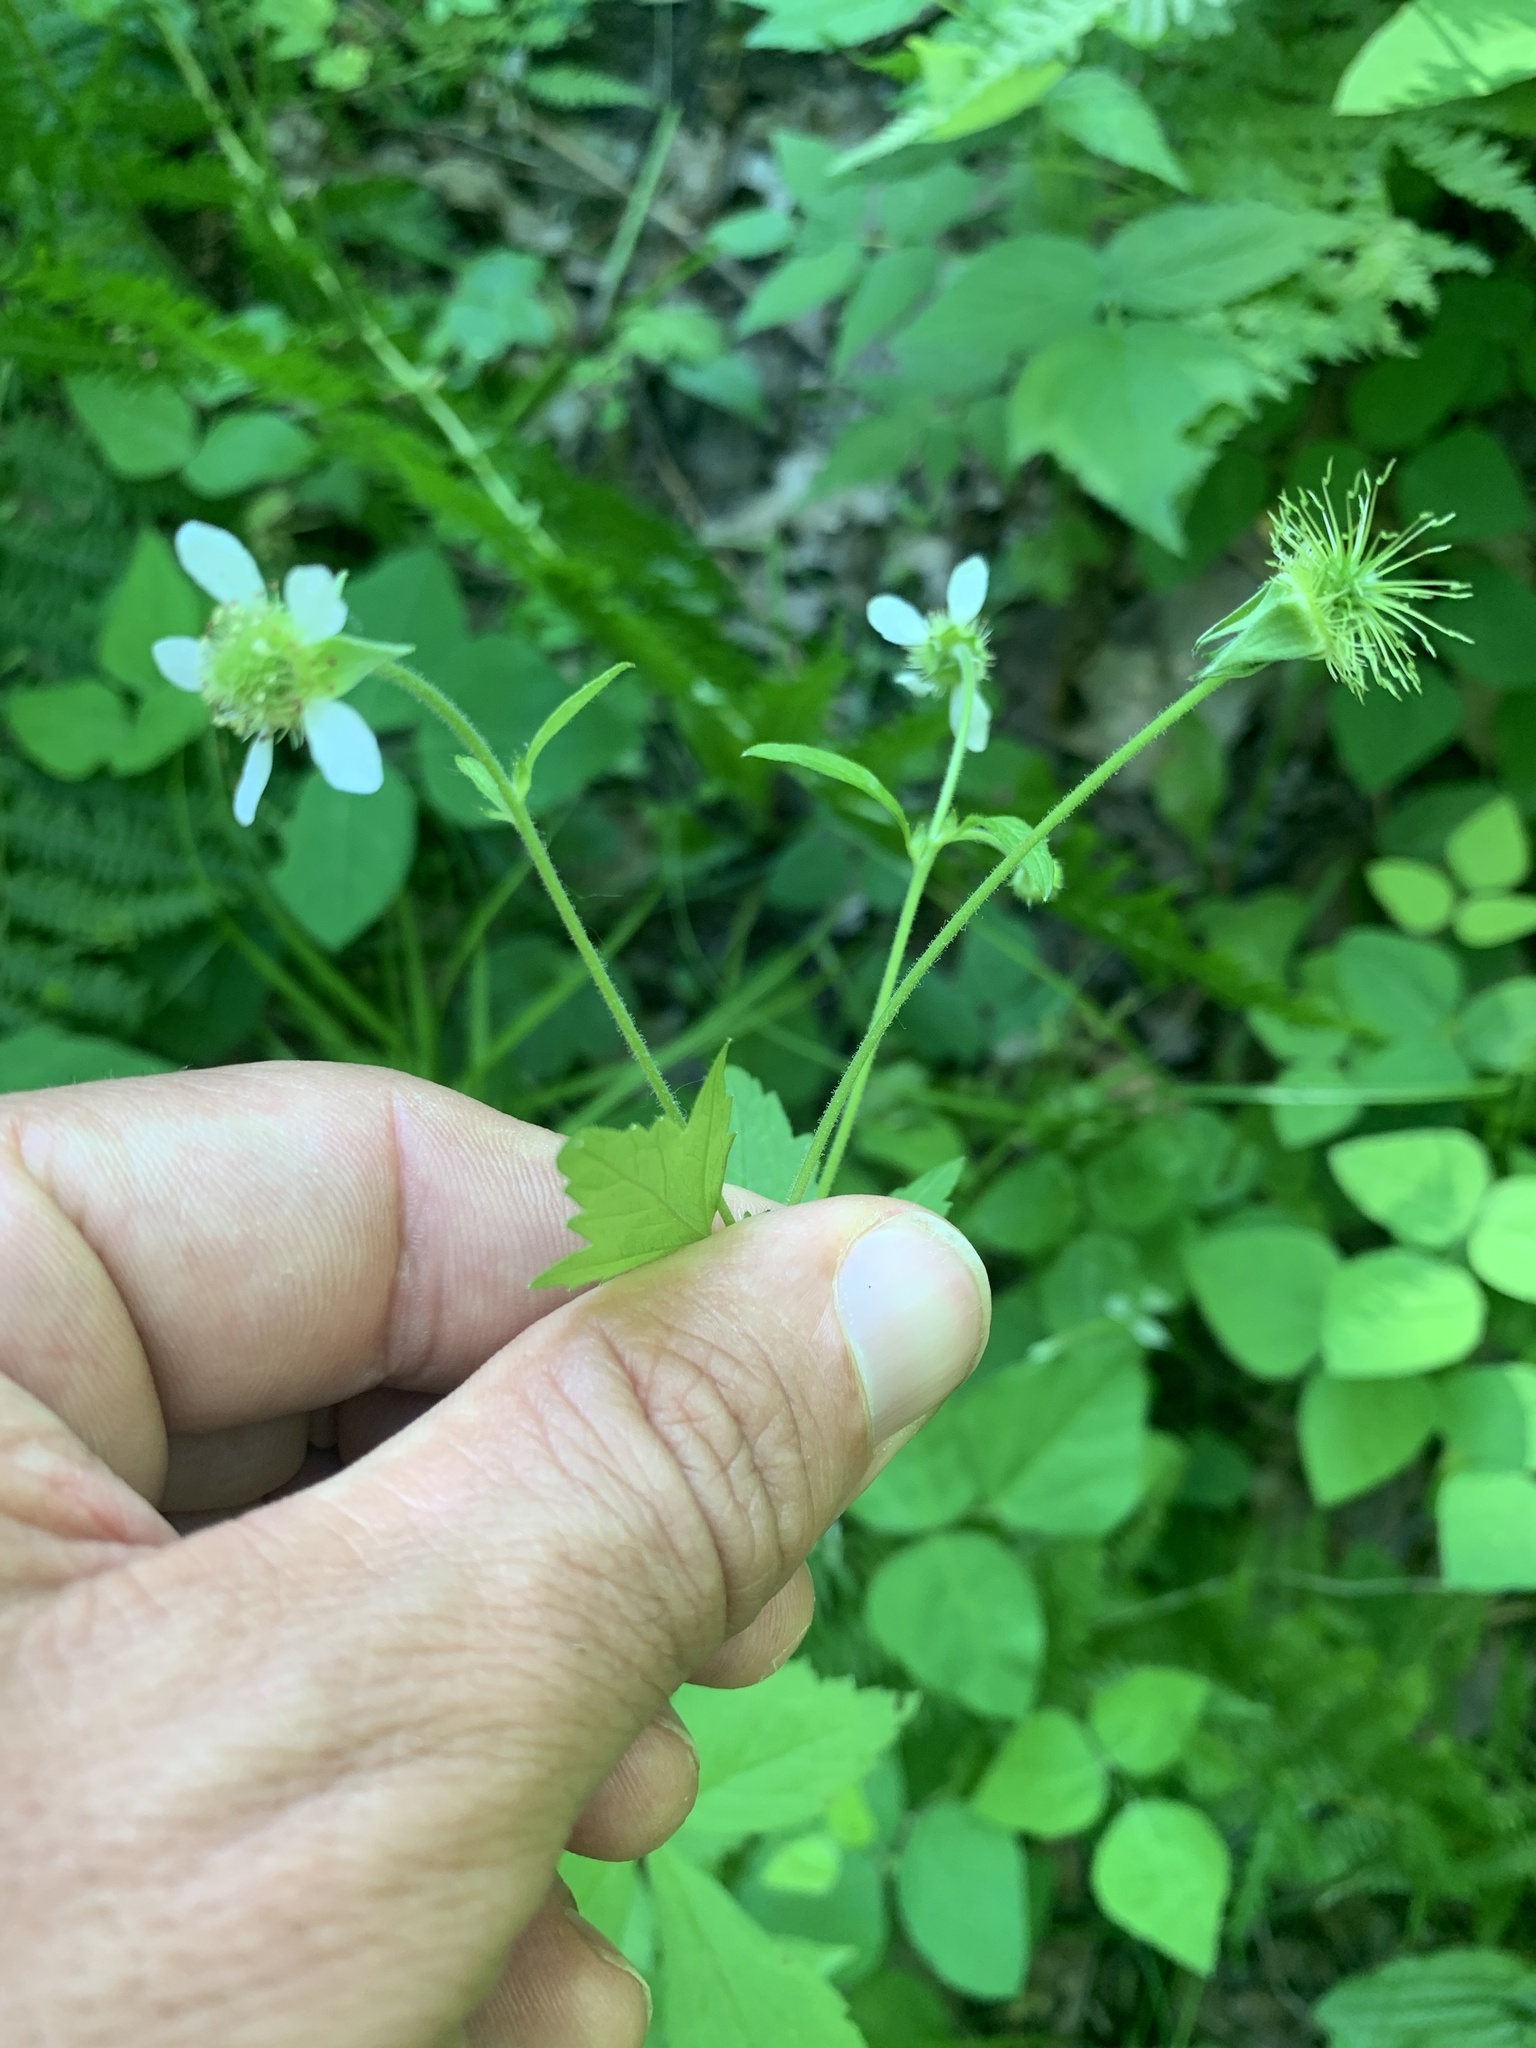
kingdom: Plantae
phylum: Tracheophyta
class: Magnoliopsida
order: Rosales
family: Rosaceae
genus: Geum
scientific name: Geum canadense
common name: White avens
